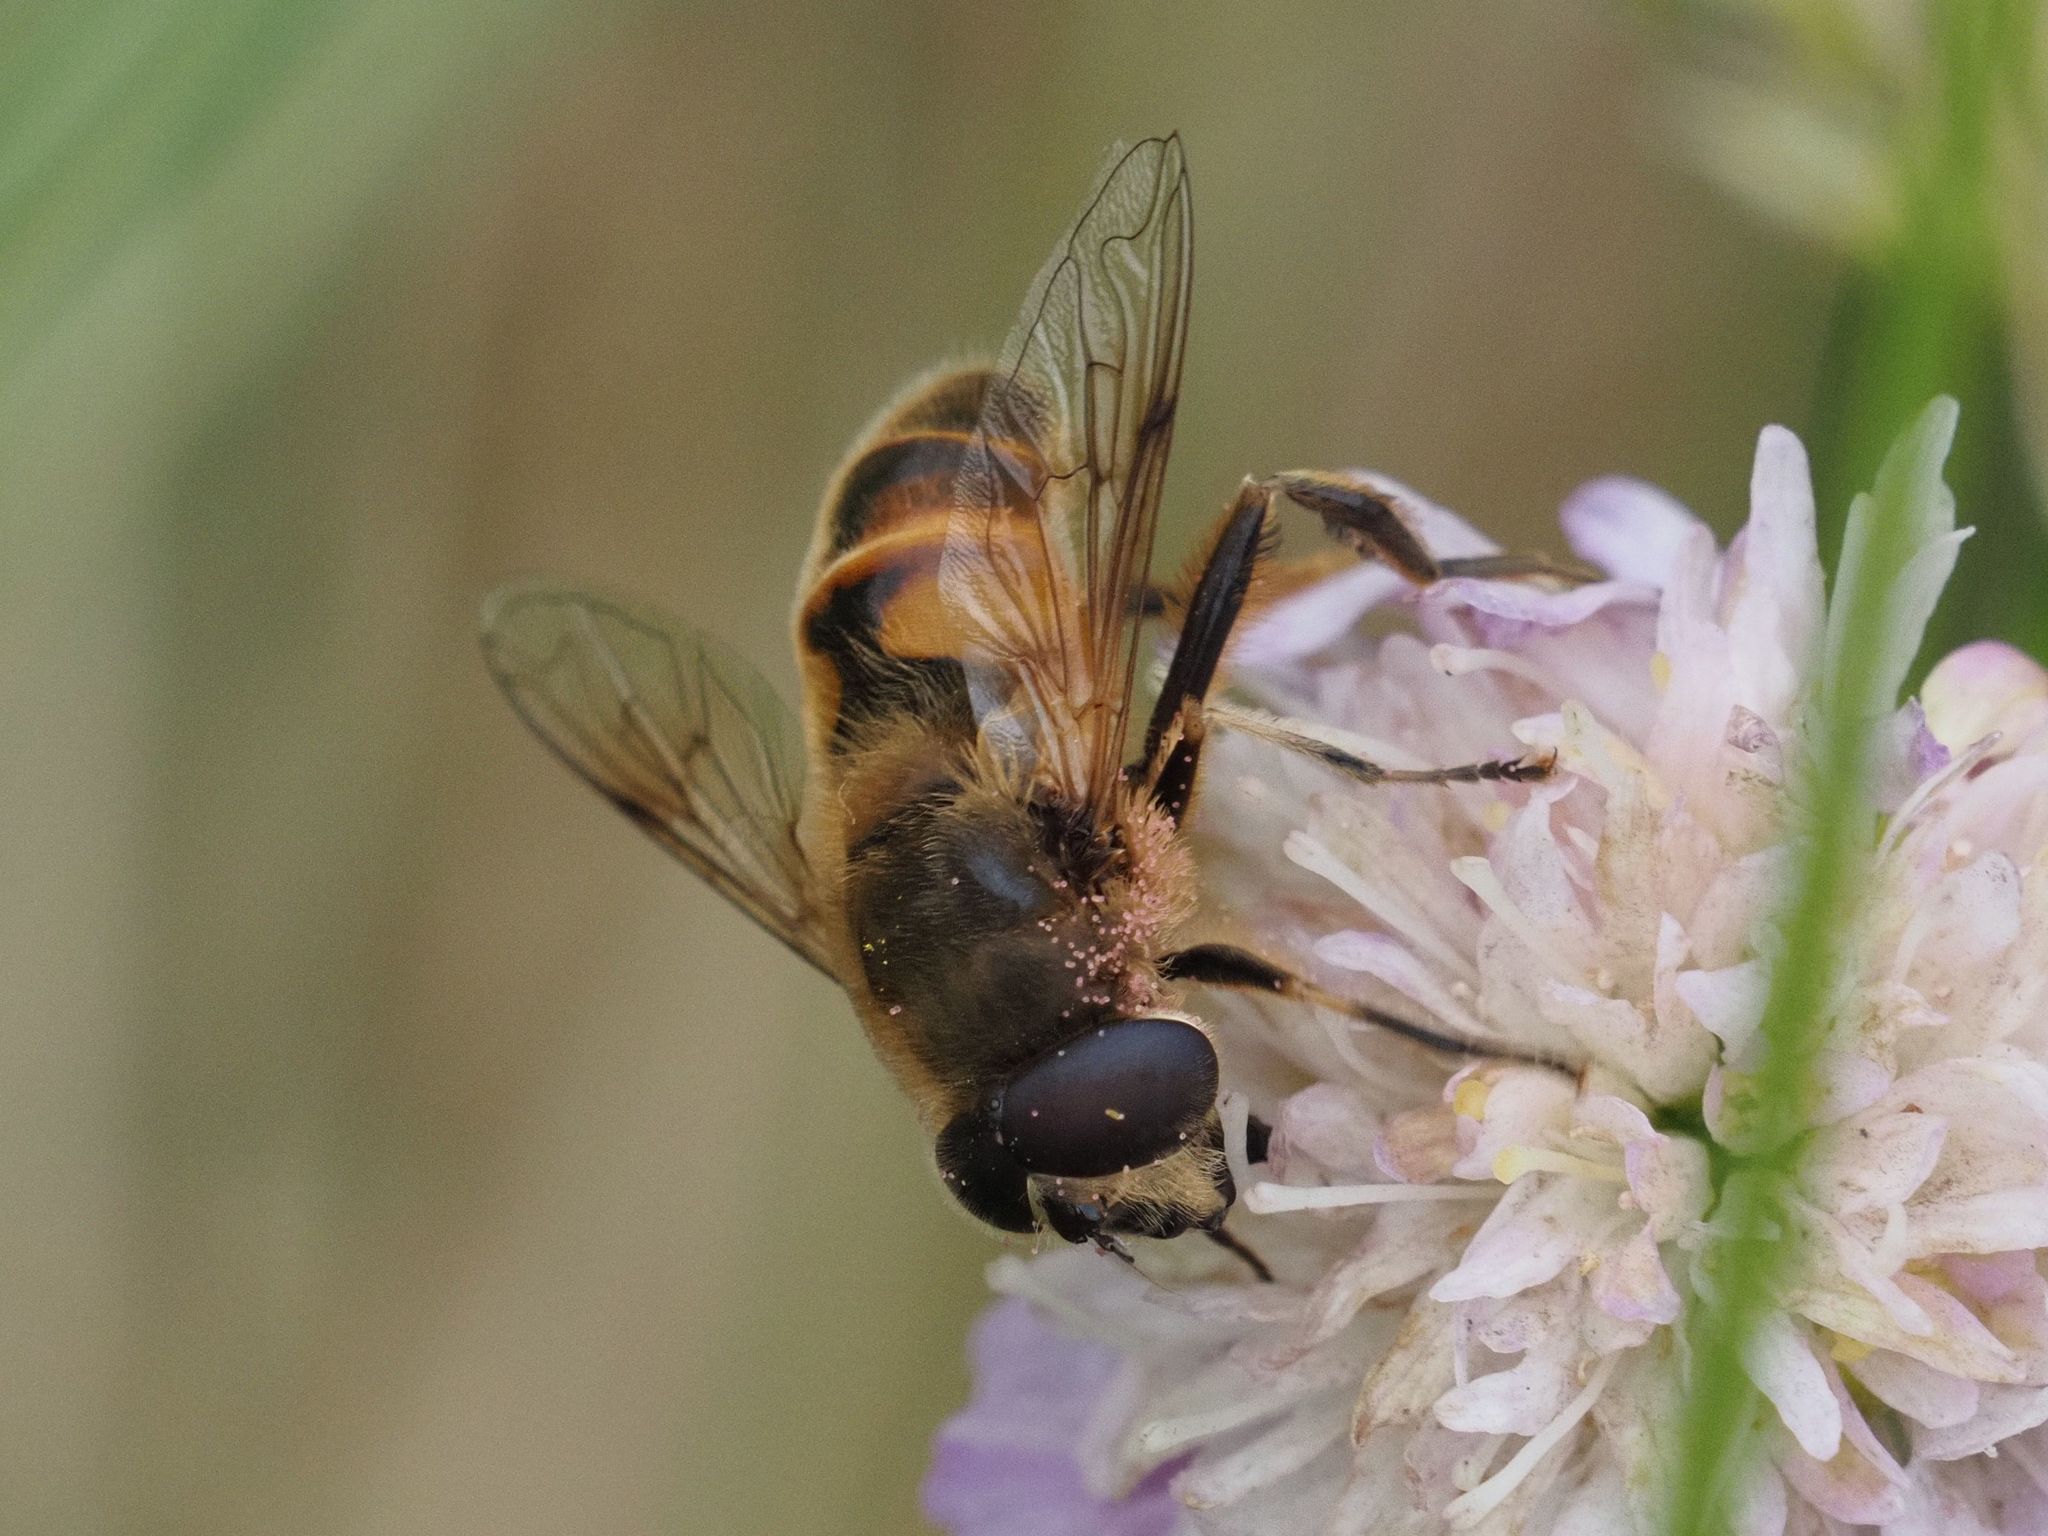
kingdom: Animalia
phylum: Arthropoda
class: Insecta
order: Diptera
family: Syrphidae
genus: Eristalis
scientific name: Eristalis tenax
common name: Drone fly
